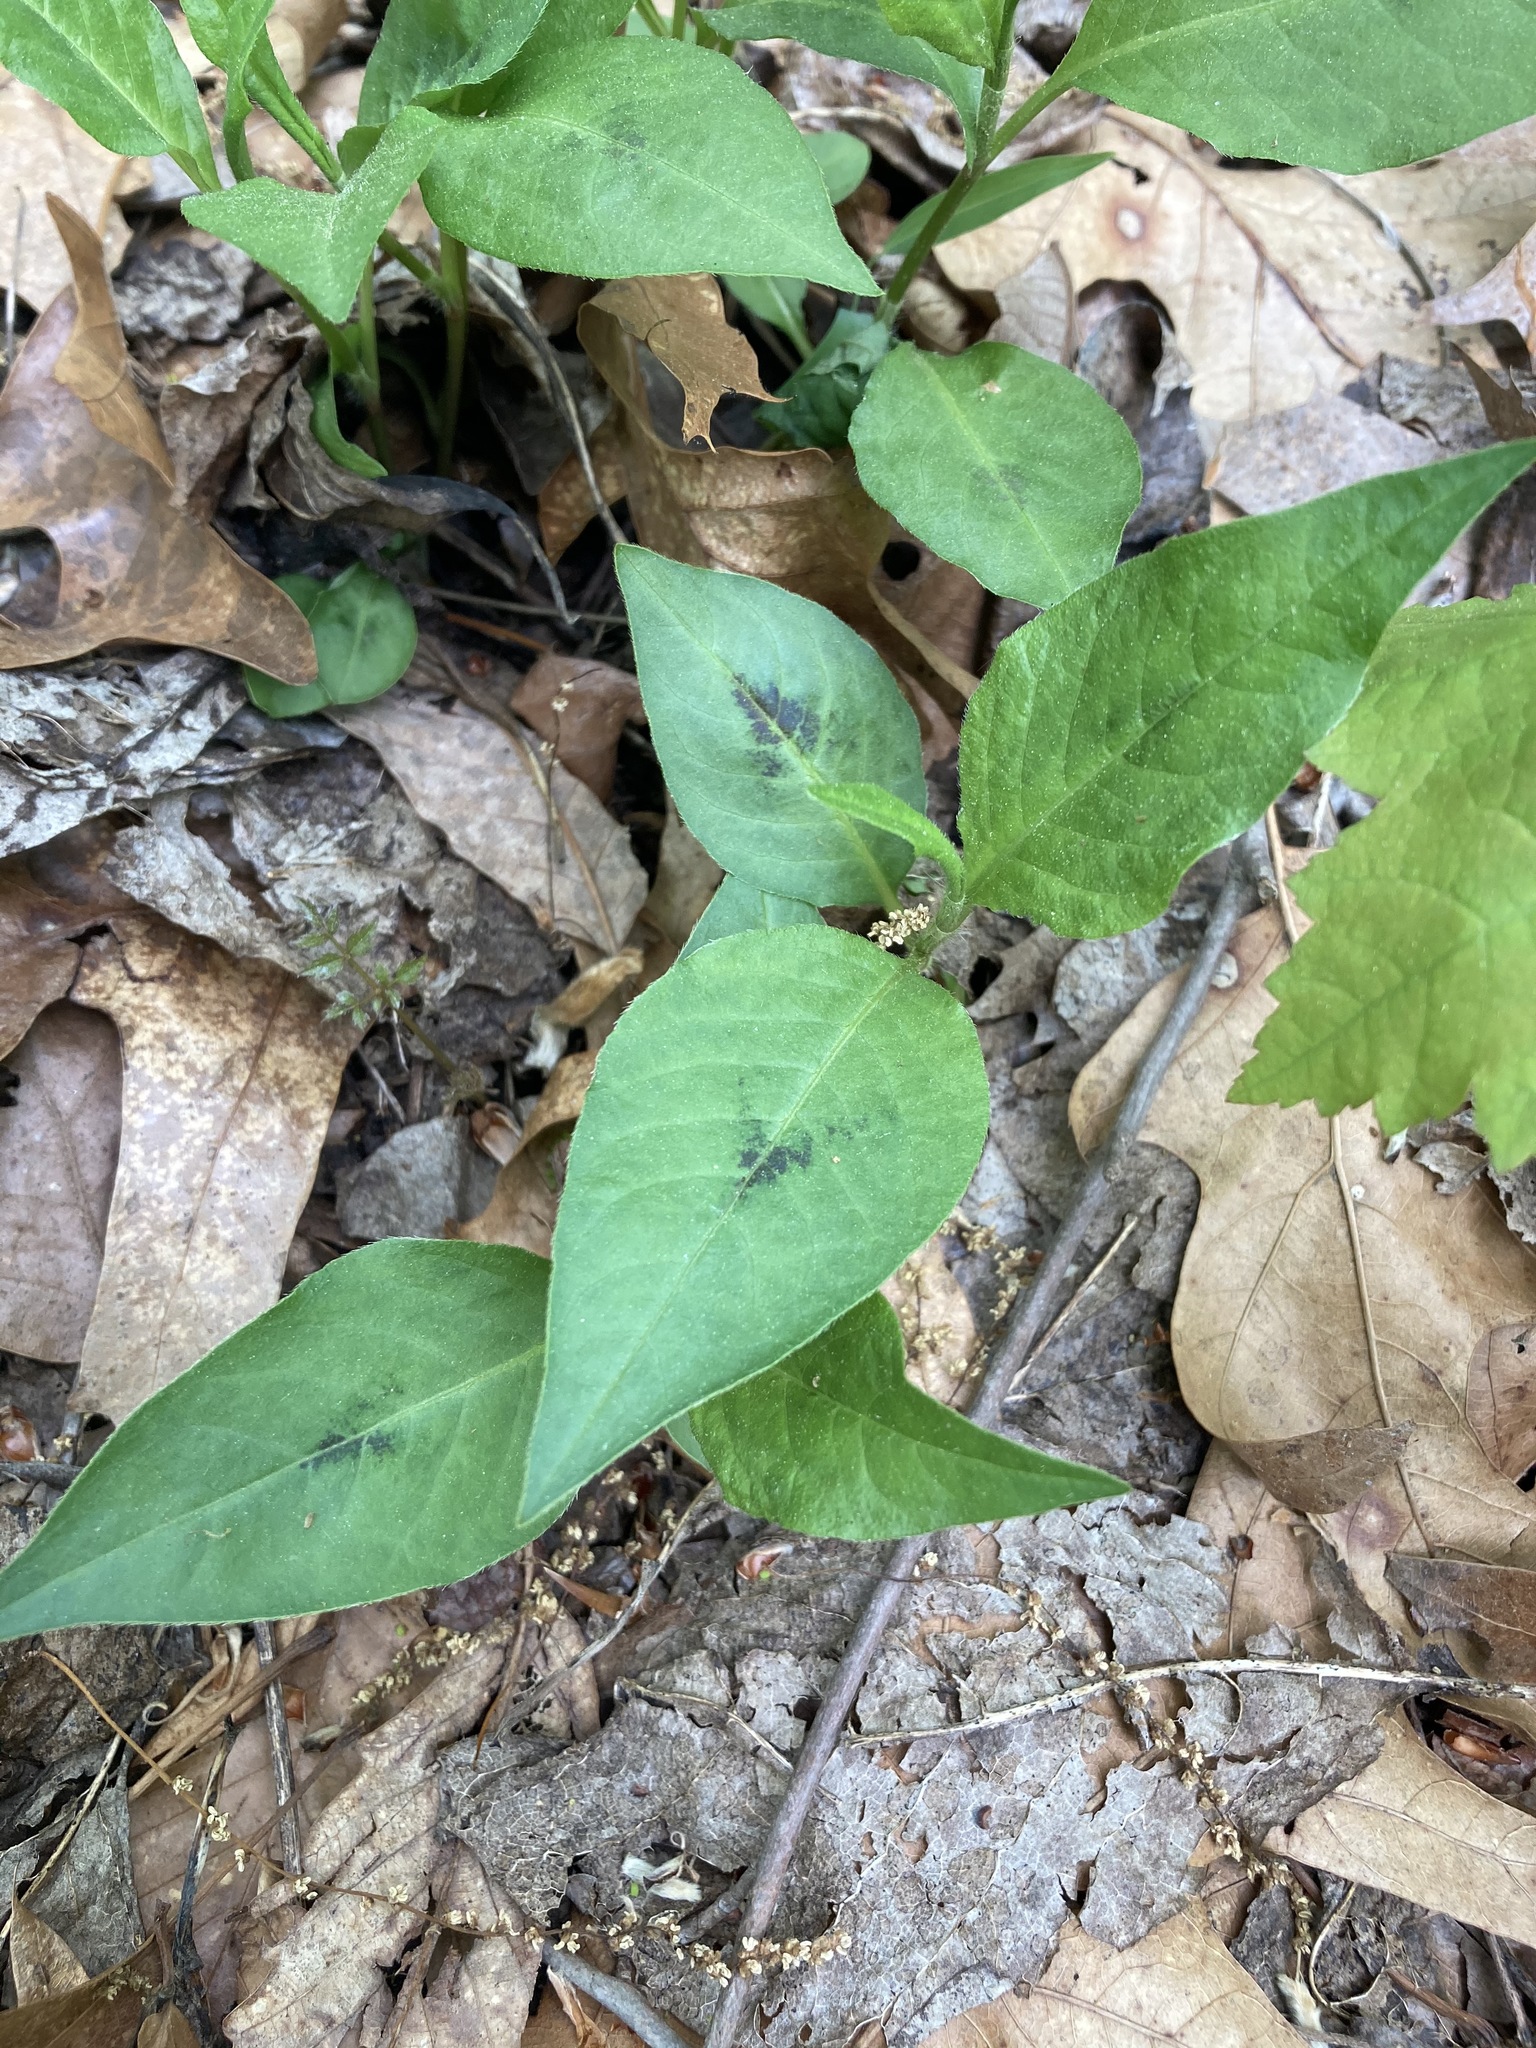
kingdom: Plantae
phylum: Tracheophyta
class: Magnoliopsida
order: Caryophyllales
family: Polygonaceae
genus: Persicaria
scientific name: Persicaria virginiana
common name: Jumpseed
